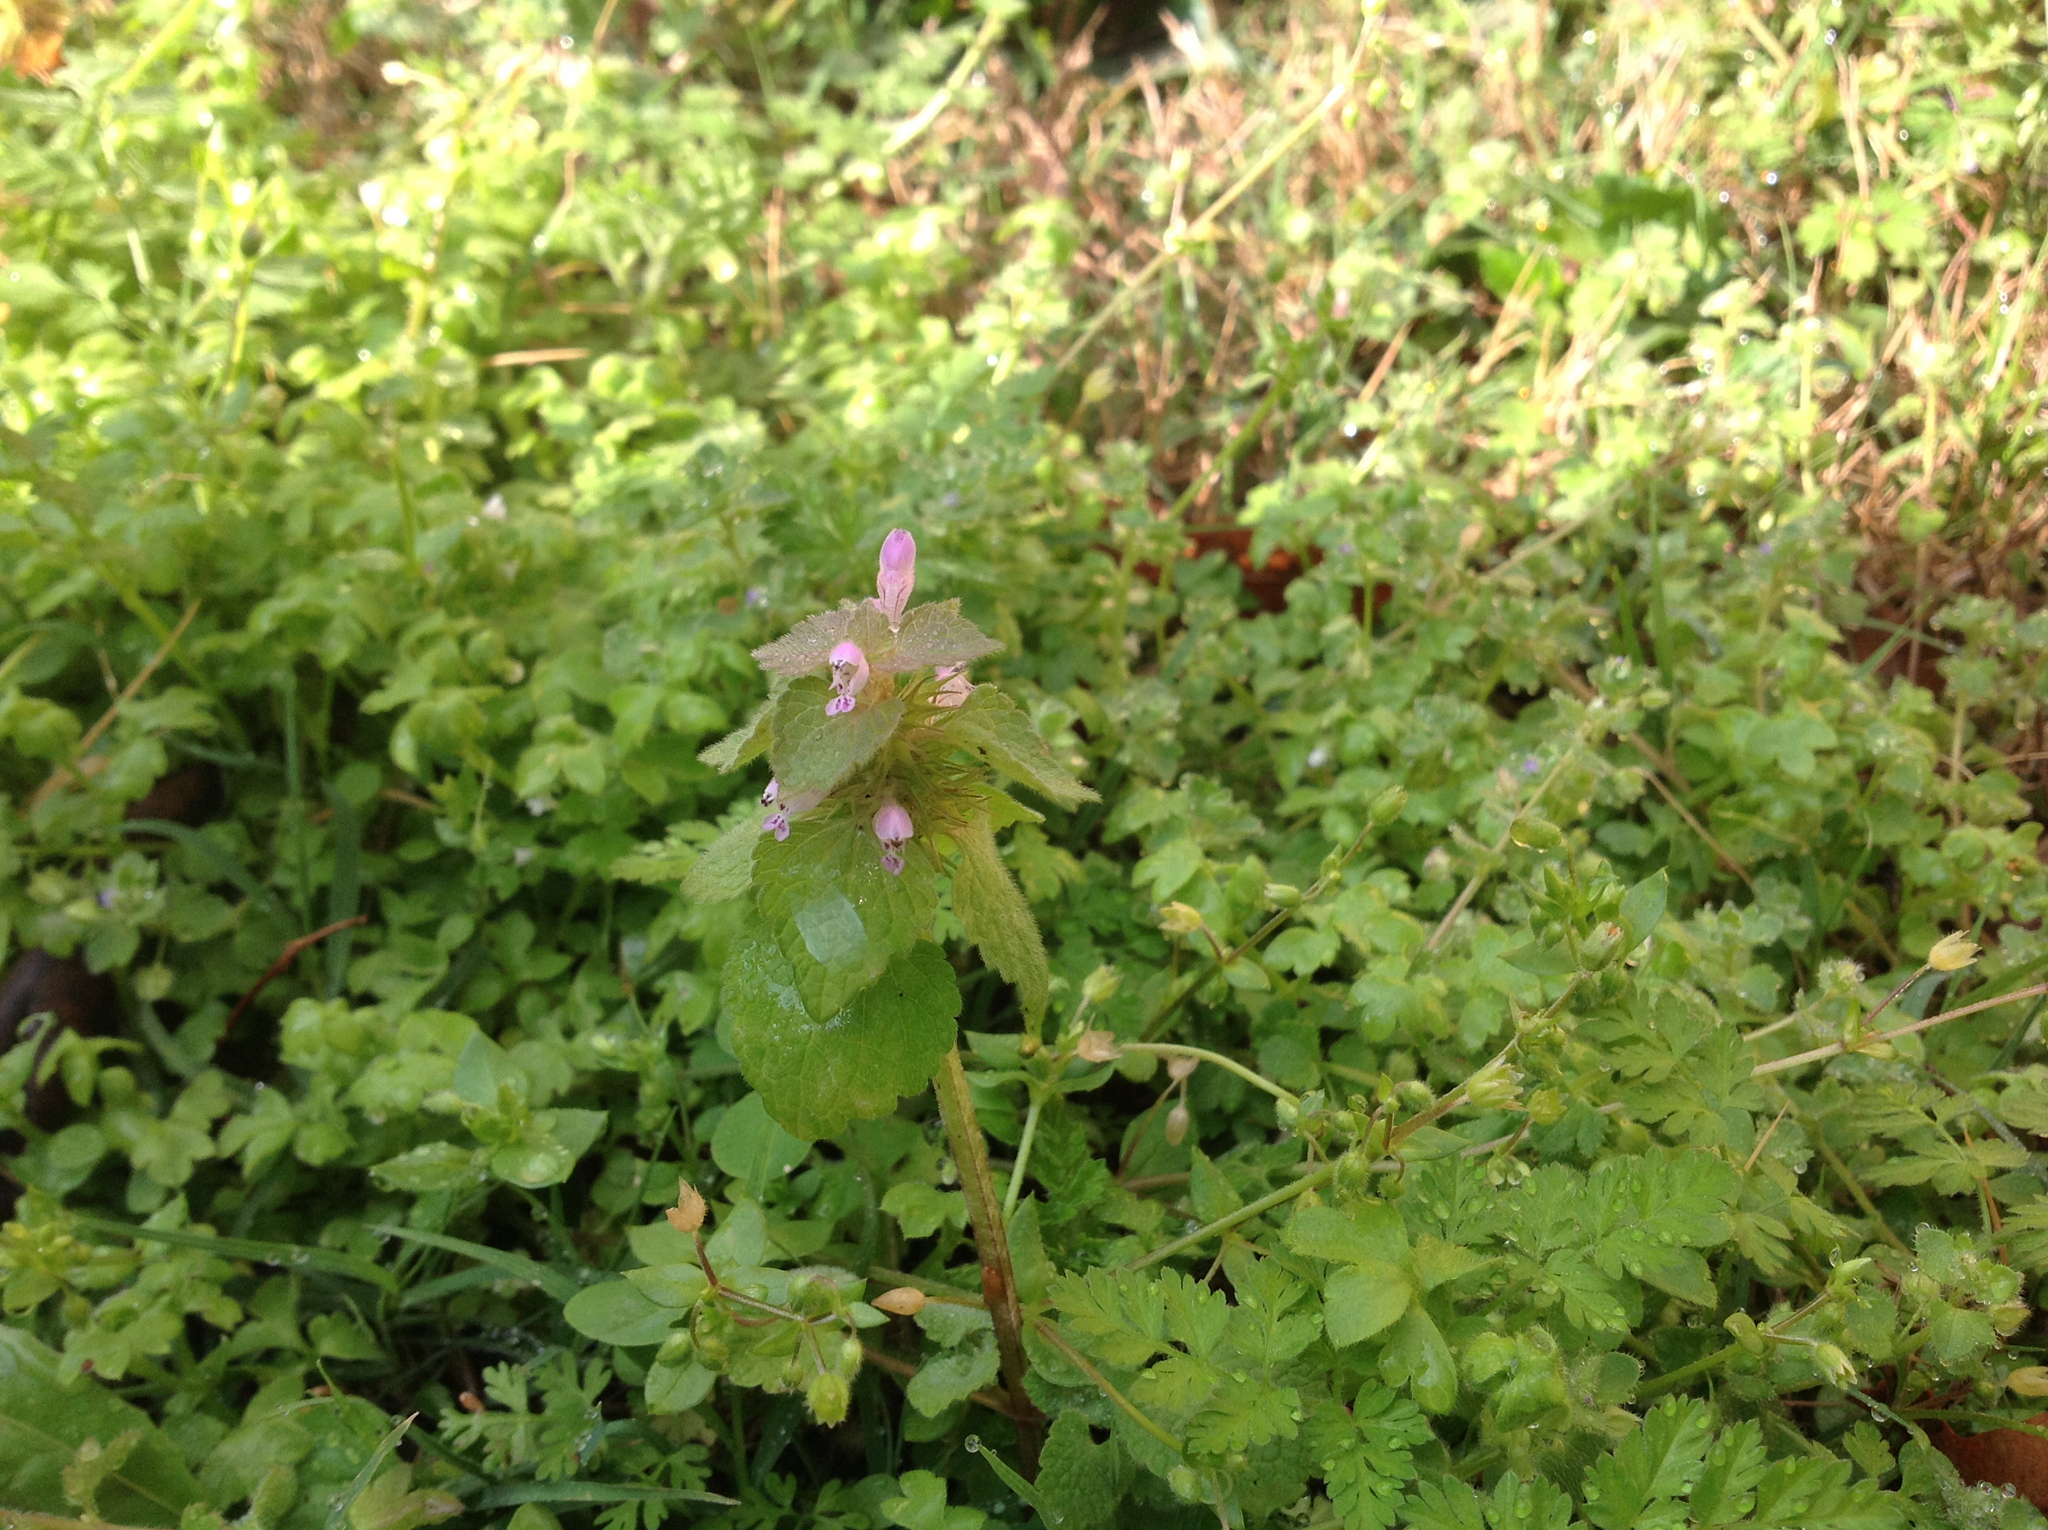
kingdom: Plantae
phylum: Tracheophyta
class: Magnoliopsida
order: Lamiales
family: Lamiaceae
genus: Lamium
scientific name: Lamium purpureum
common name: Red dead-nettle
